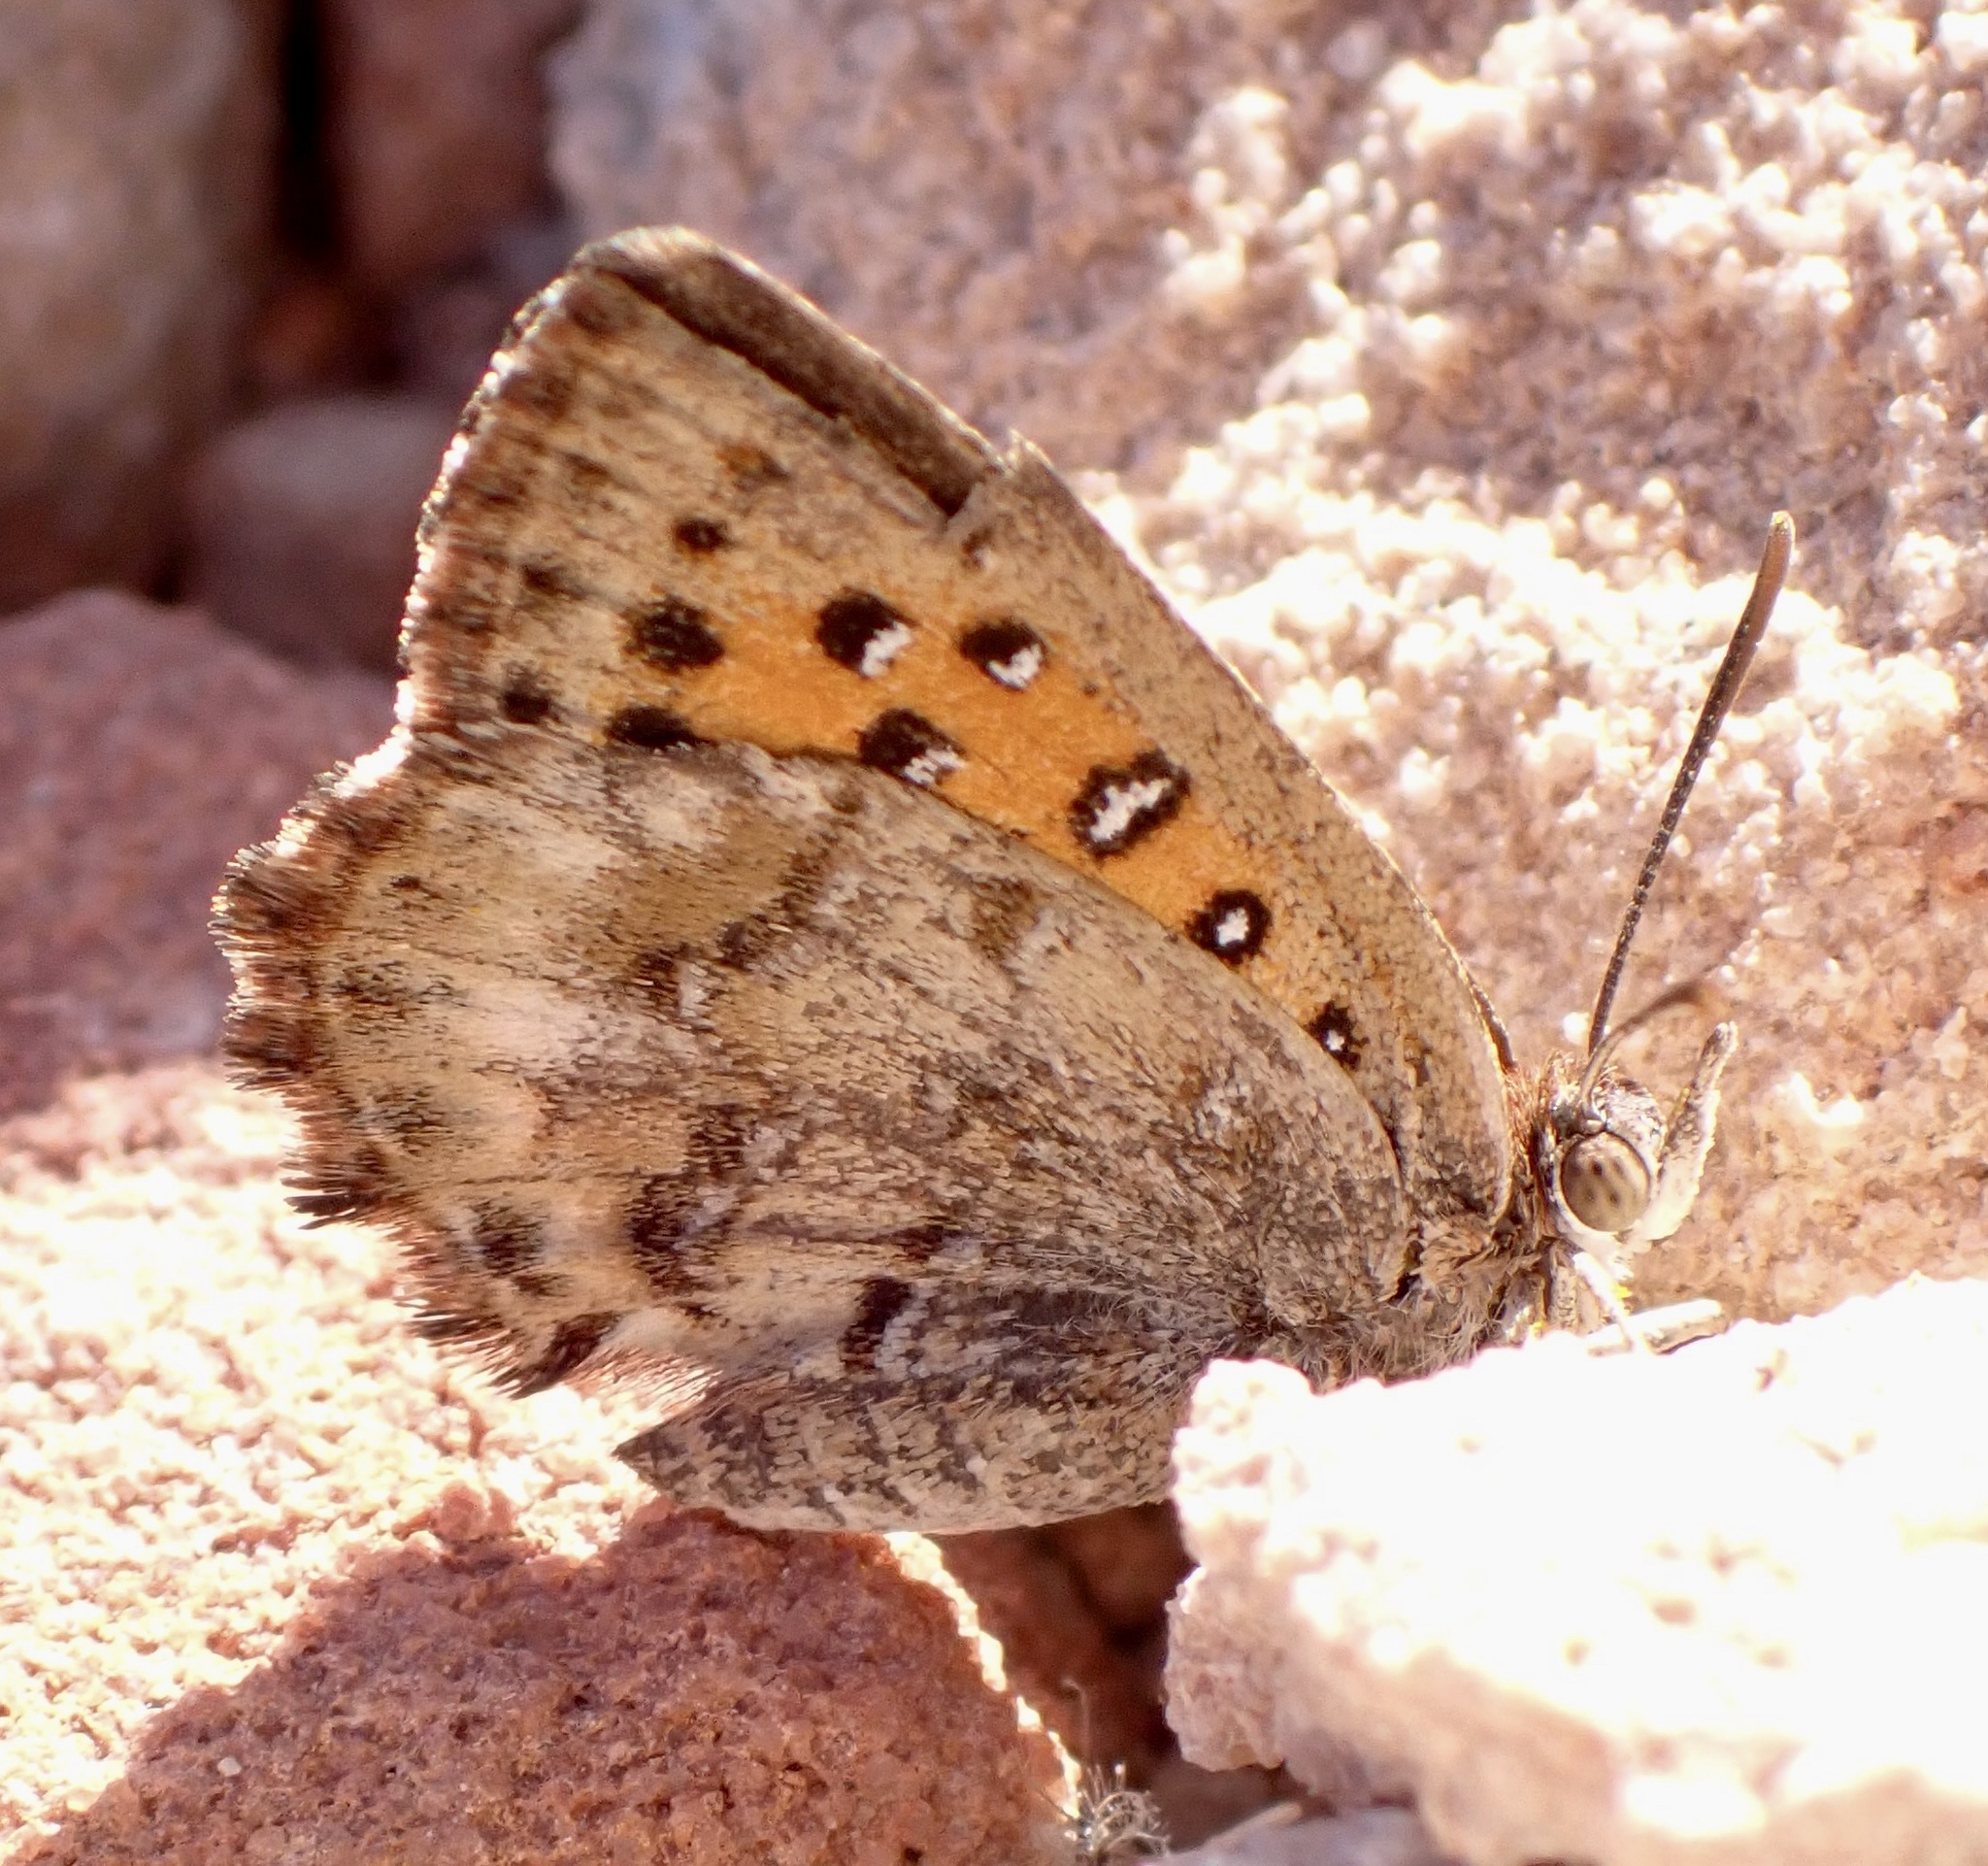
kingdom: Animalia
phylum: Arthropoda
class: Insecta
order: Lepidoptera
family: Lycaenidae
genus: Aloeides
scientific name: Aloeides pierus
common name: Dull copper
